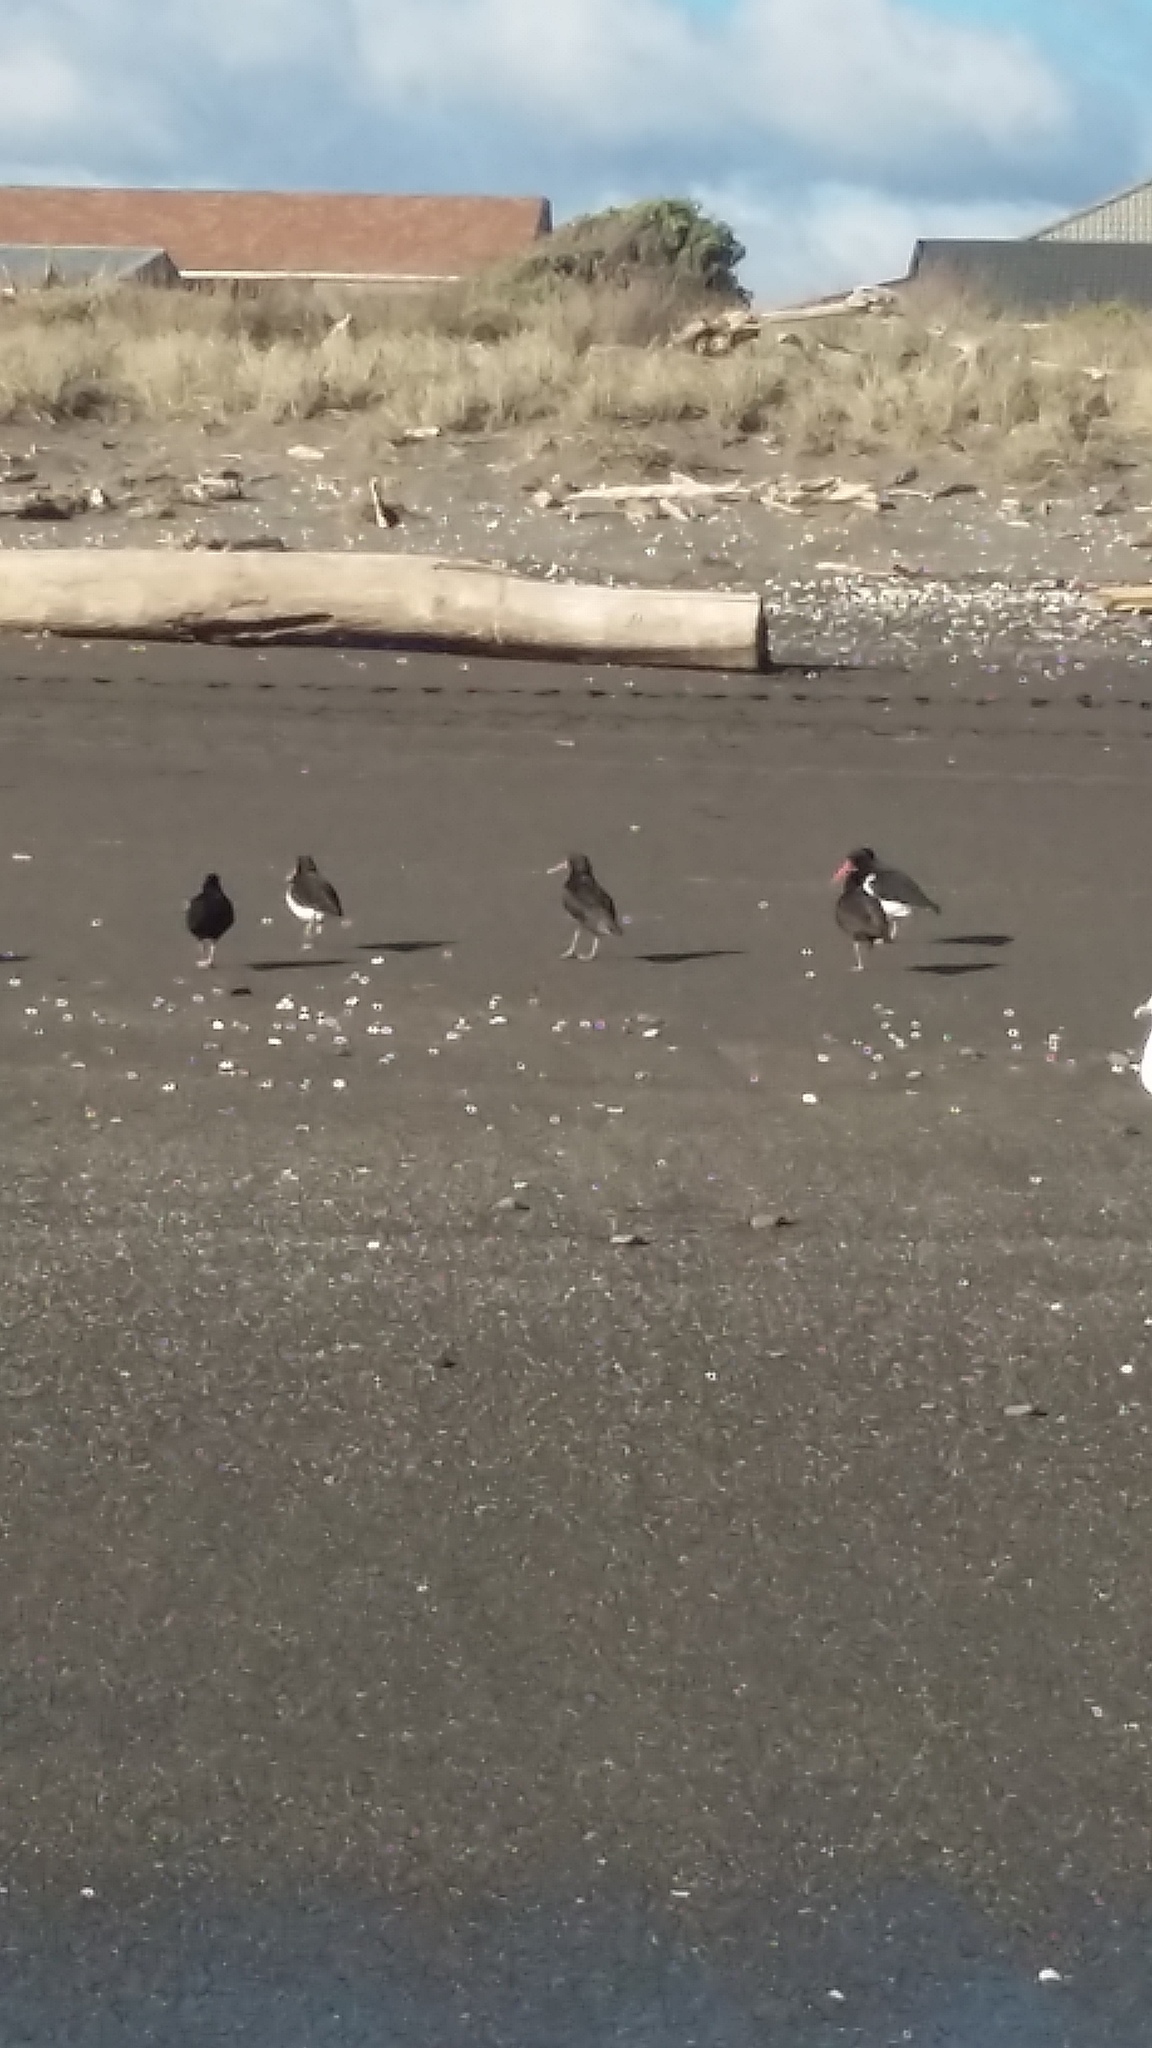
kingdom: Animalia
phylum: Chordata
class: Aves
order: Charadriiformes
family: Haematopodidae
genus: Haematopus
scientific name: Haematopus unicolor
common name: Variable oystercatcher
